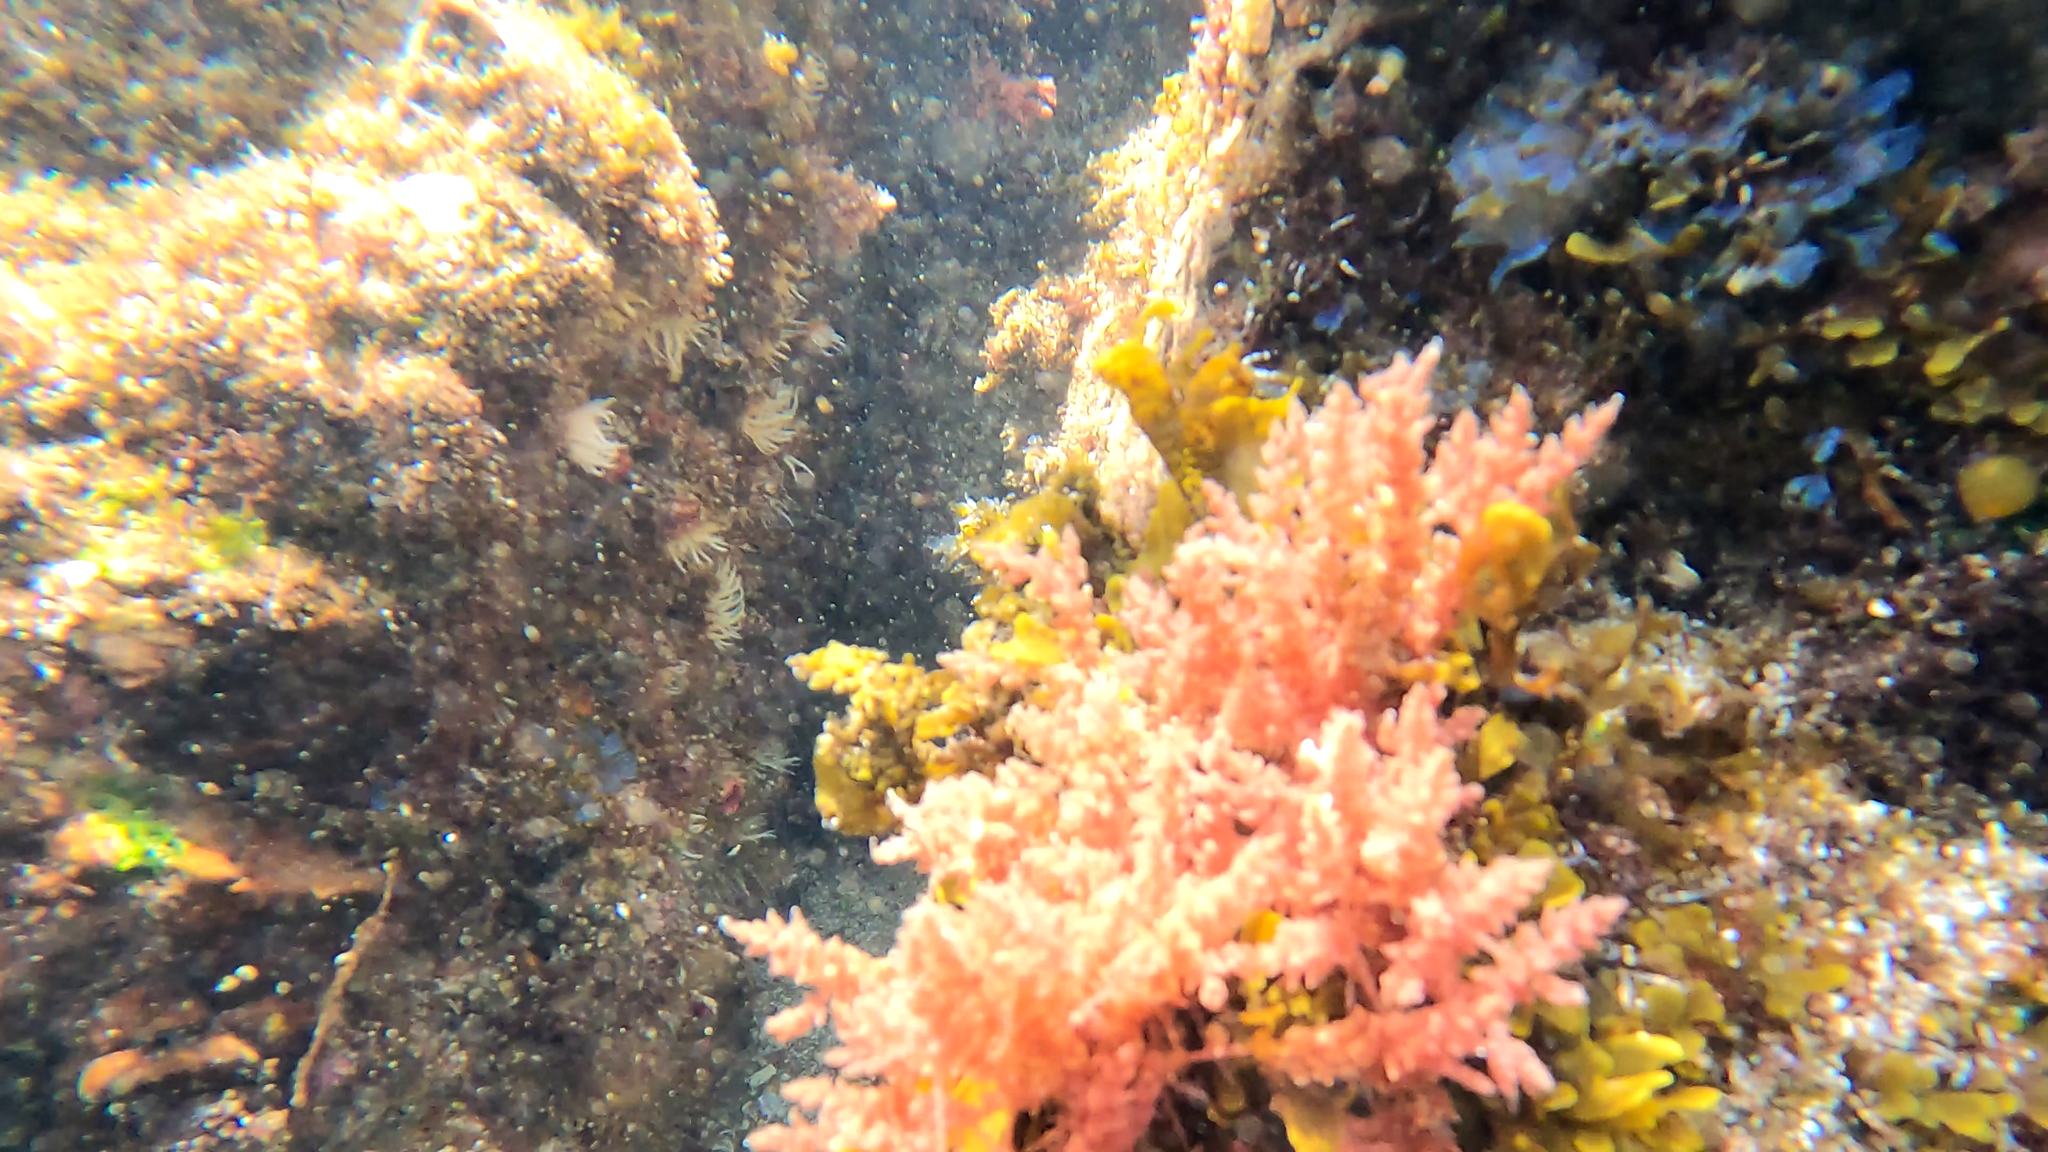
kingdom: Plantae
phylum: Rhodophyta
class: Florideophyceae
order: Bonnemaisoniales
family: Bonnemaisoniaceae
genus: Asparagopsis
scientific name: Asparagopsis armata
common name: Harpoon weed
